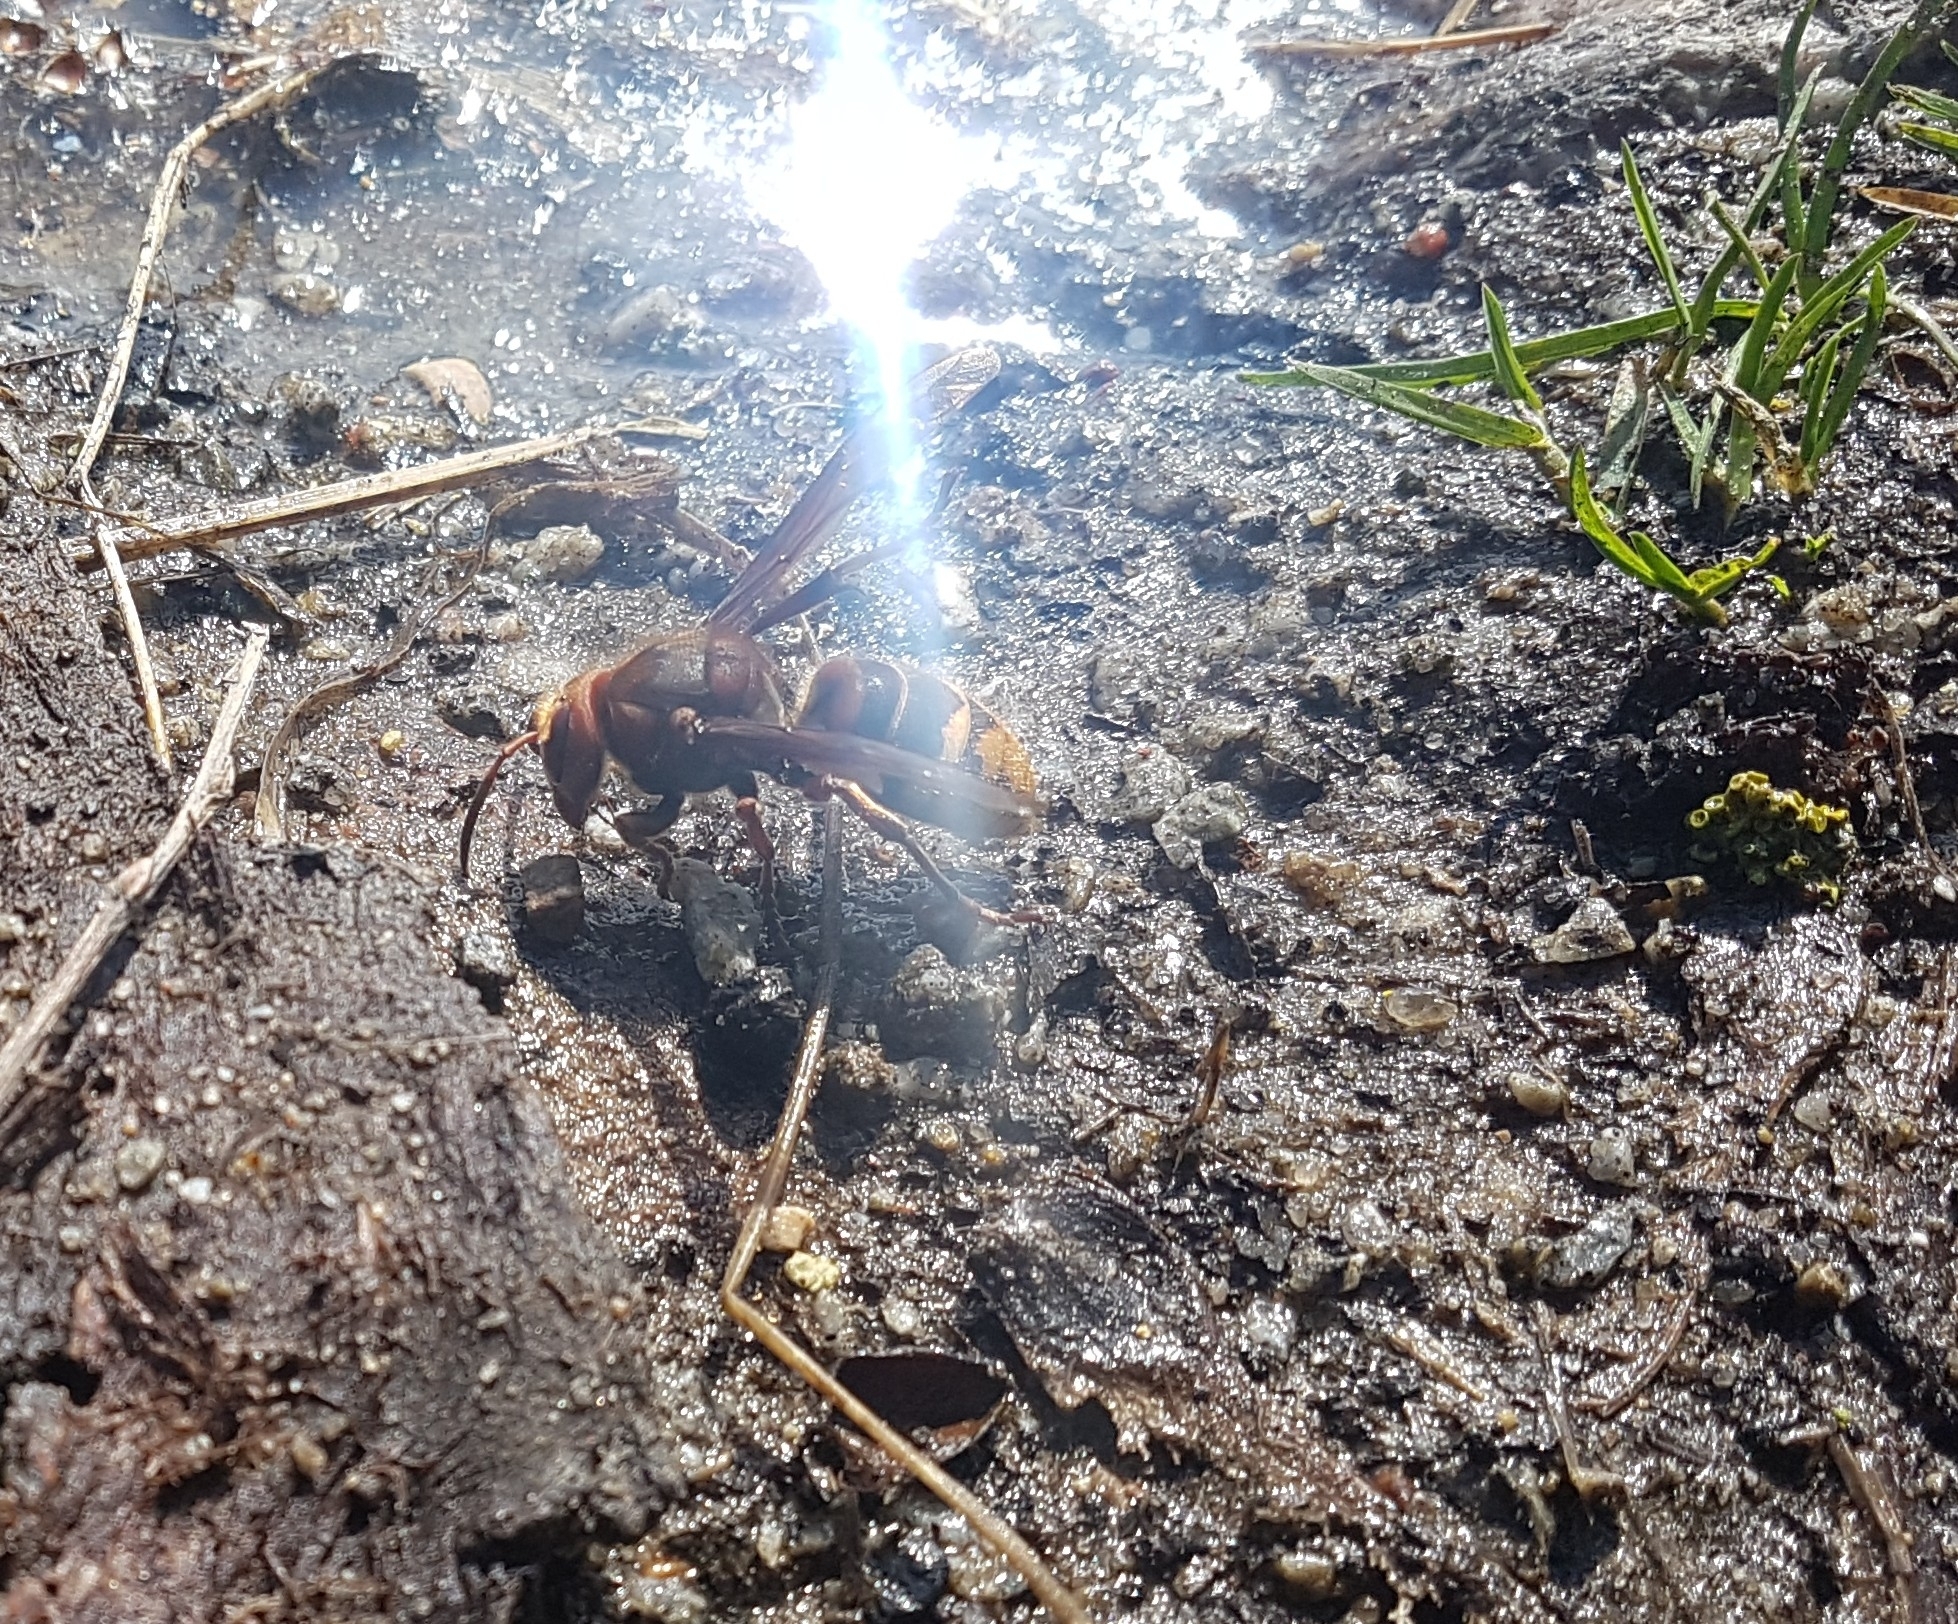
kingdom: Animalia
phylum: Arthropoda
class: Insecta
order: Hymenoptera
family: Vespidae
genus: Vespa
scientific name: Vespa crabro
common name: Hornet
